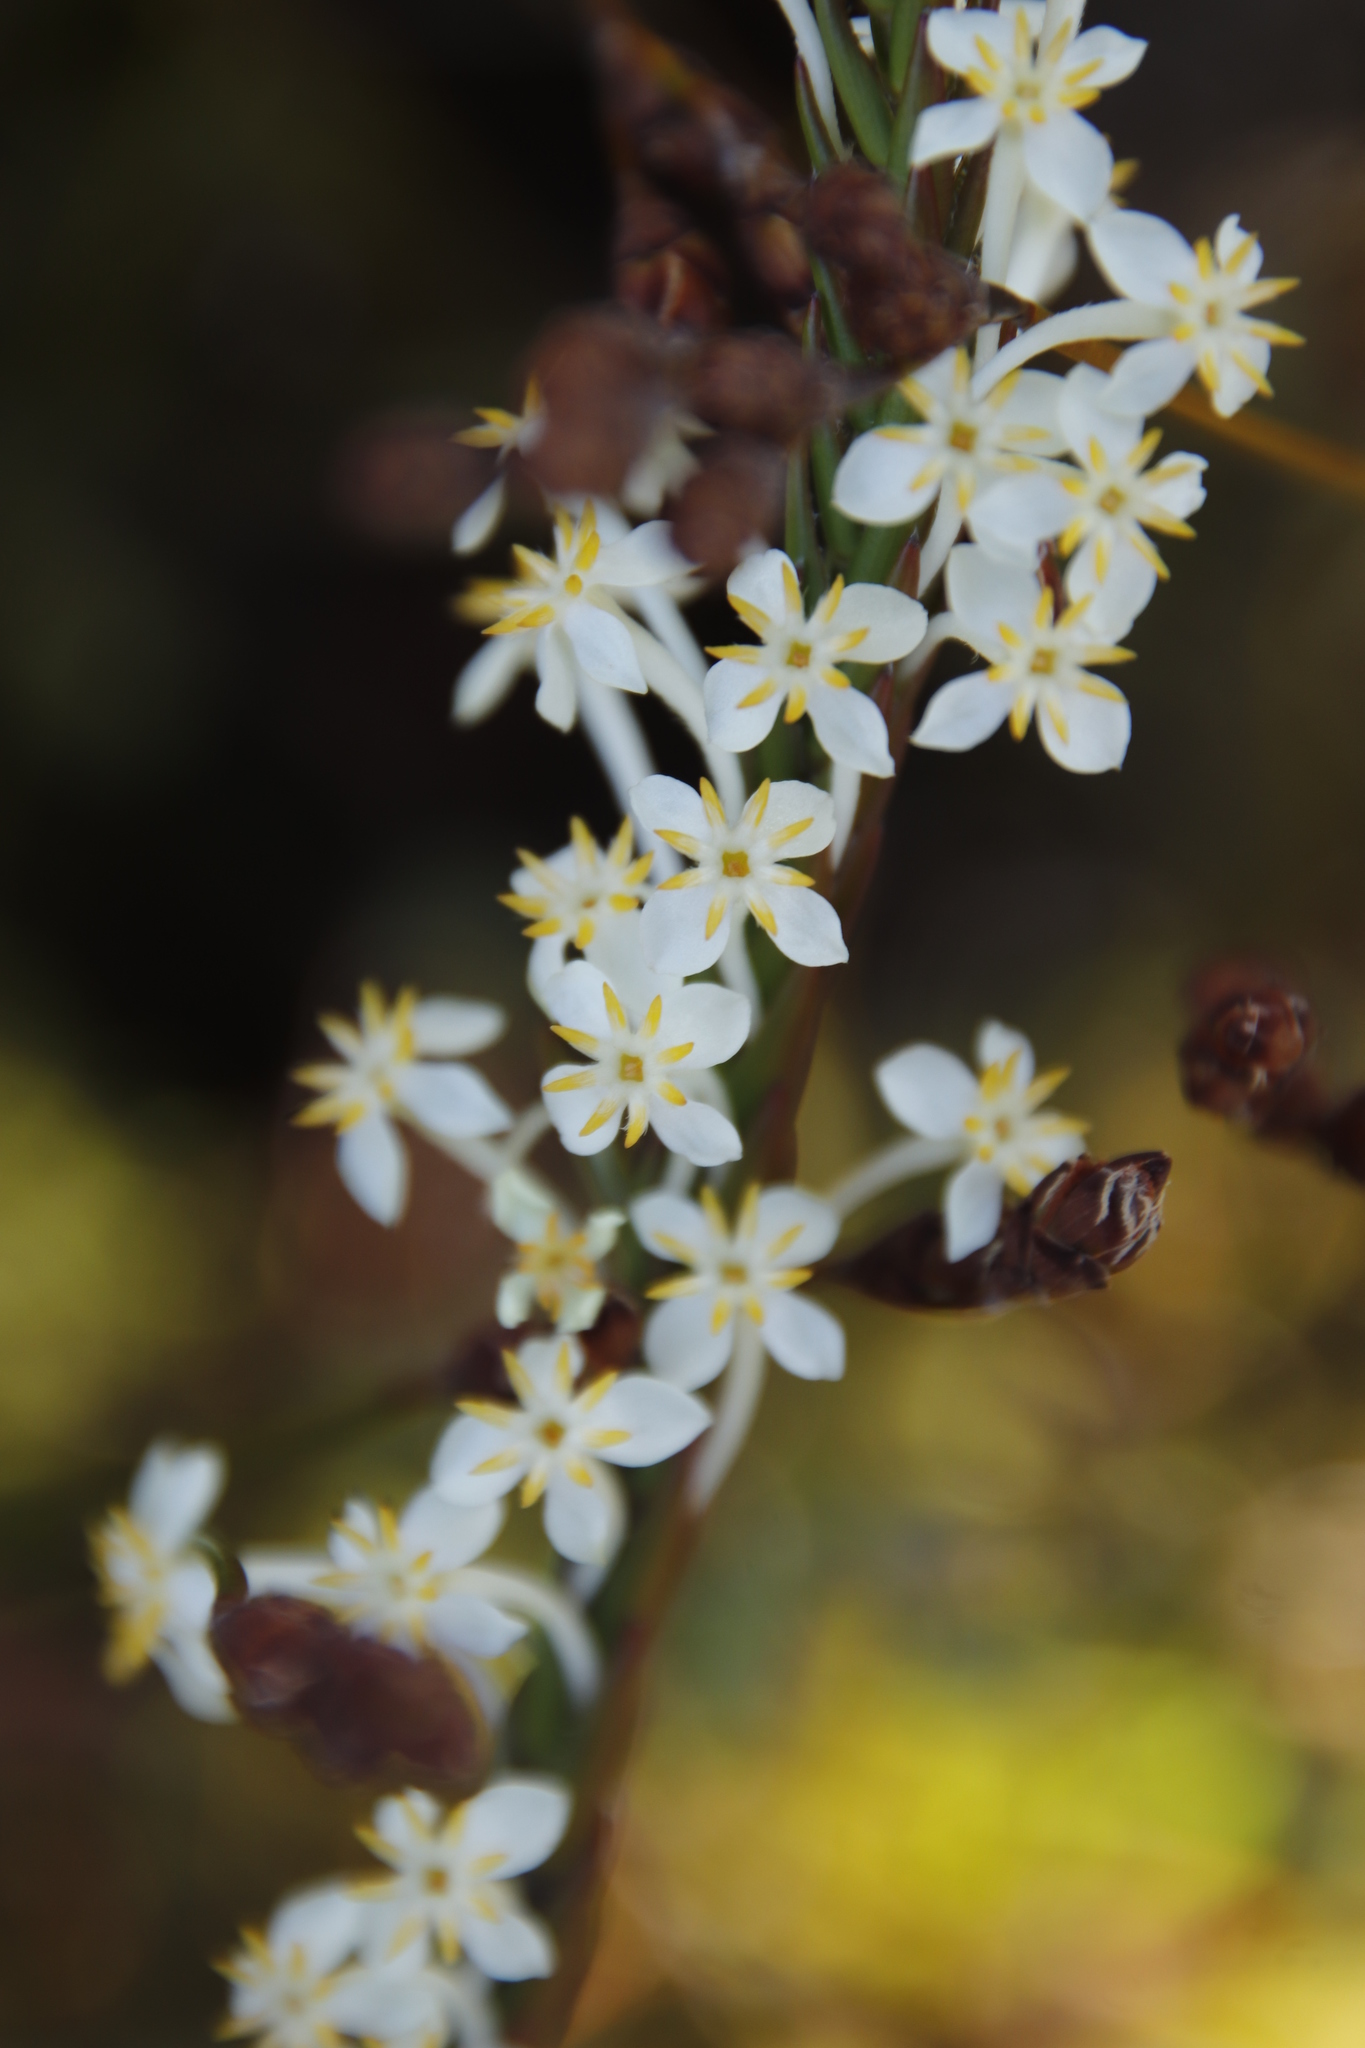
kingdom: Plantae
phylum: Tracheophyta
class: Magnoliopsida
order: Malvales
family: Thymelaeaceae
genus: Struthiola
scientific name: Struthiola ciliata
